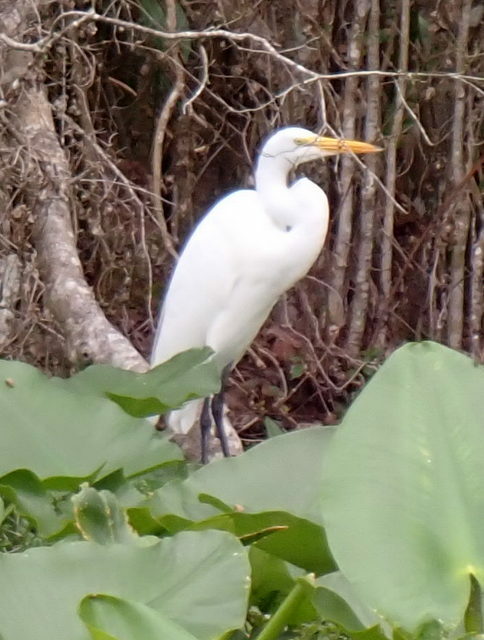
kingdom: Animalia
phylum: Chordata
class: Aves
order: Pelecaniformes
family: Ardeidae
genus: Ardea
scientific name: Ardea alba
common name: Great egret
